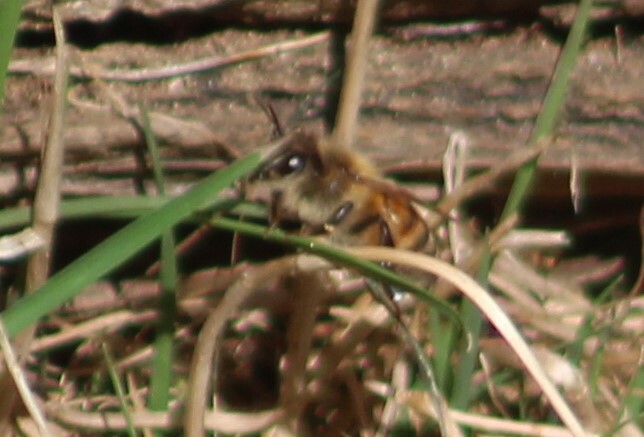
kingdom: Animalia
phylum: Arthropoda
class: Insecta
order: Hymenoptera
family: Apidae
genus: Apis
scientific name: Apis mellifera
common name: Honey bee
